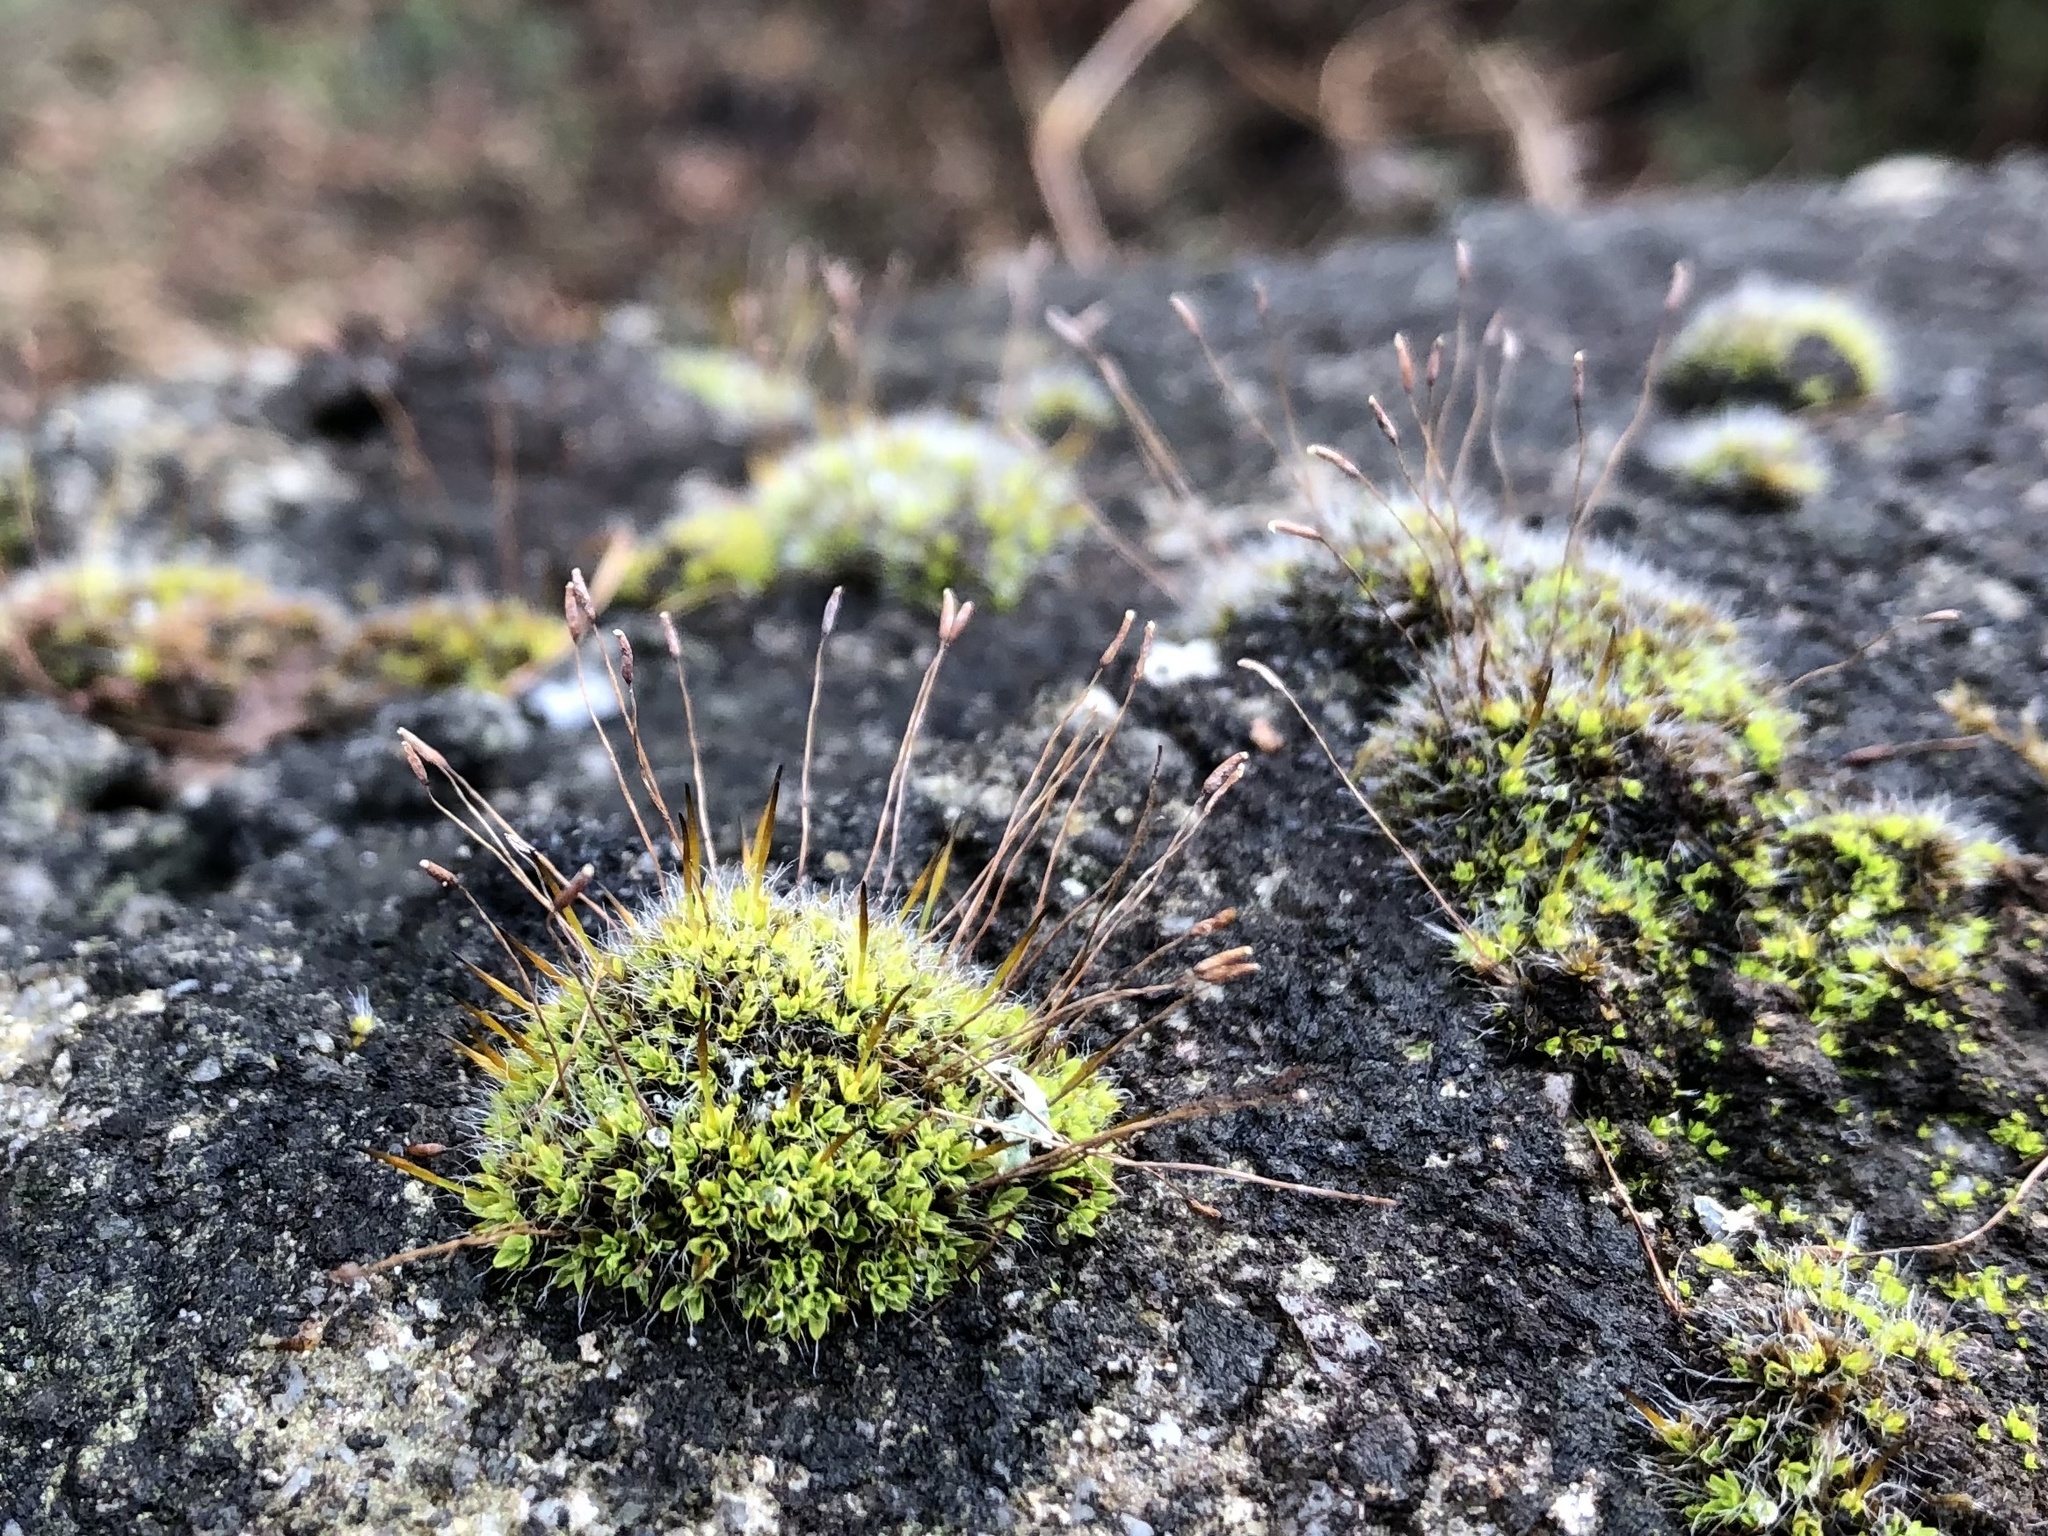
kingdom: Plantae
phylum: Bryophyta
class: Bryopsida
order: Pottiales
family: Pottiaceae
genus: Tortula
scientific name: Tortula muralis
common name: Wall screw-moss
